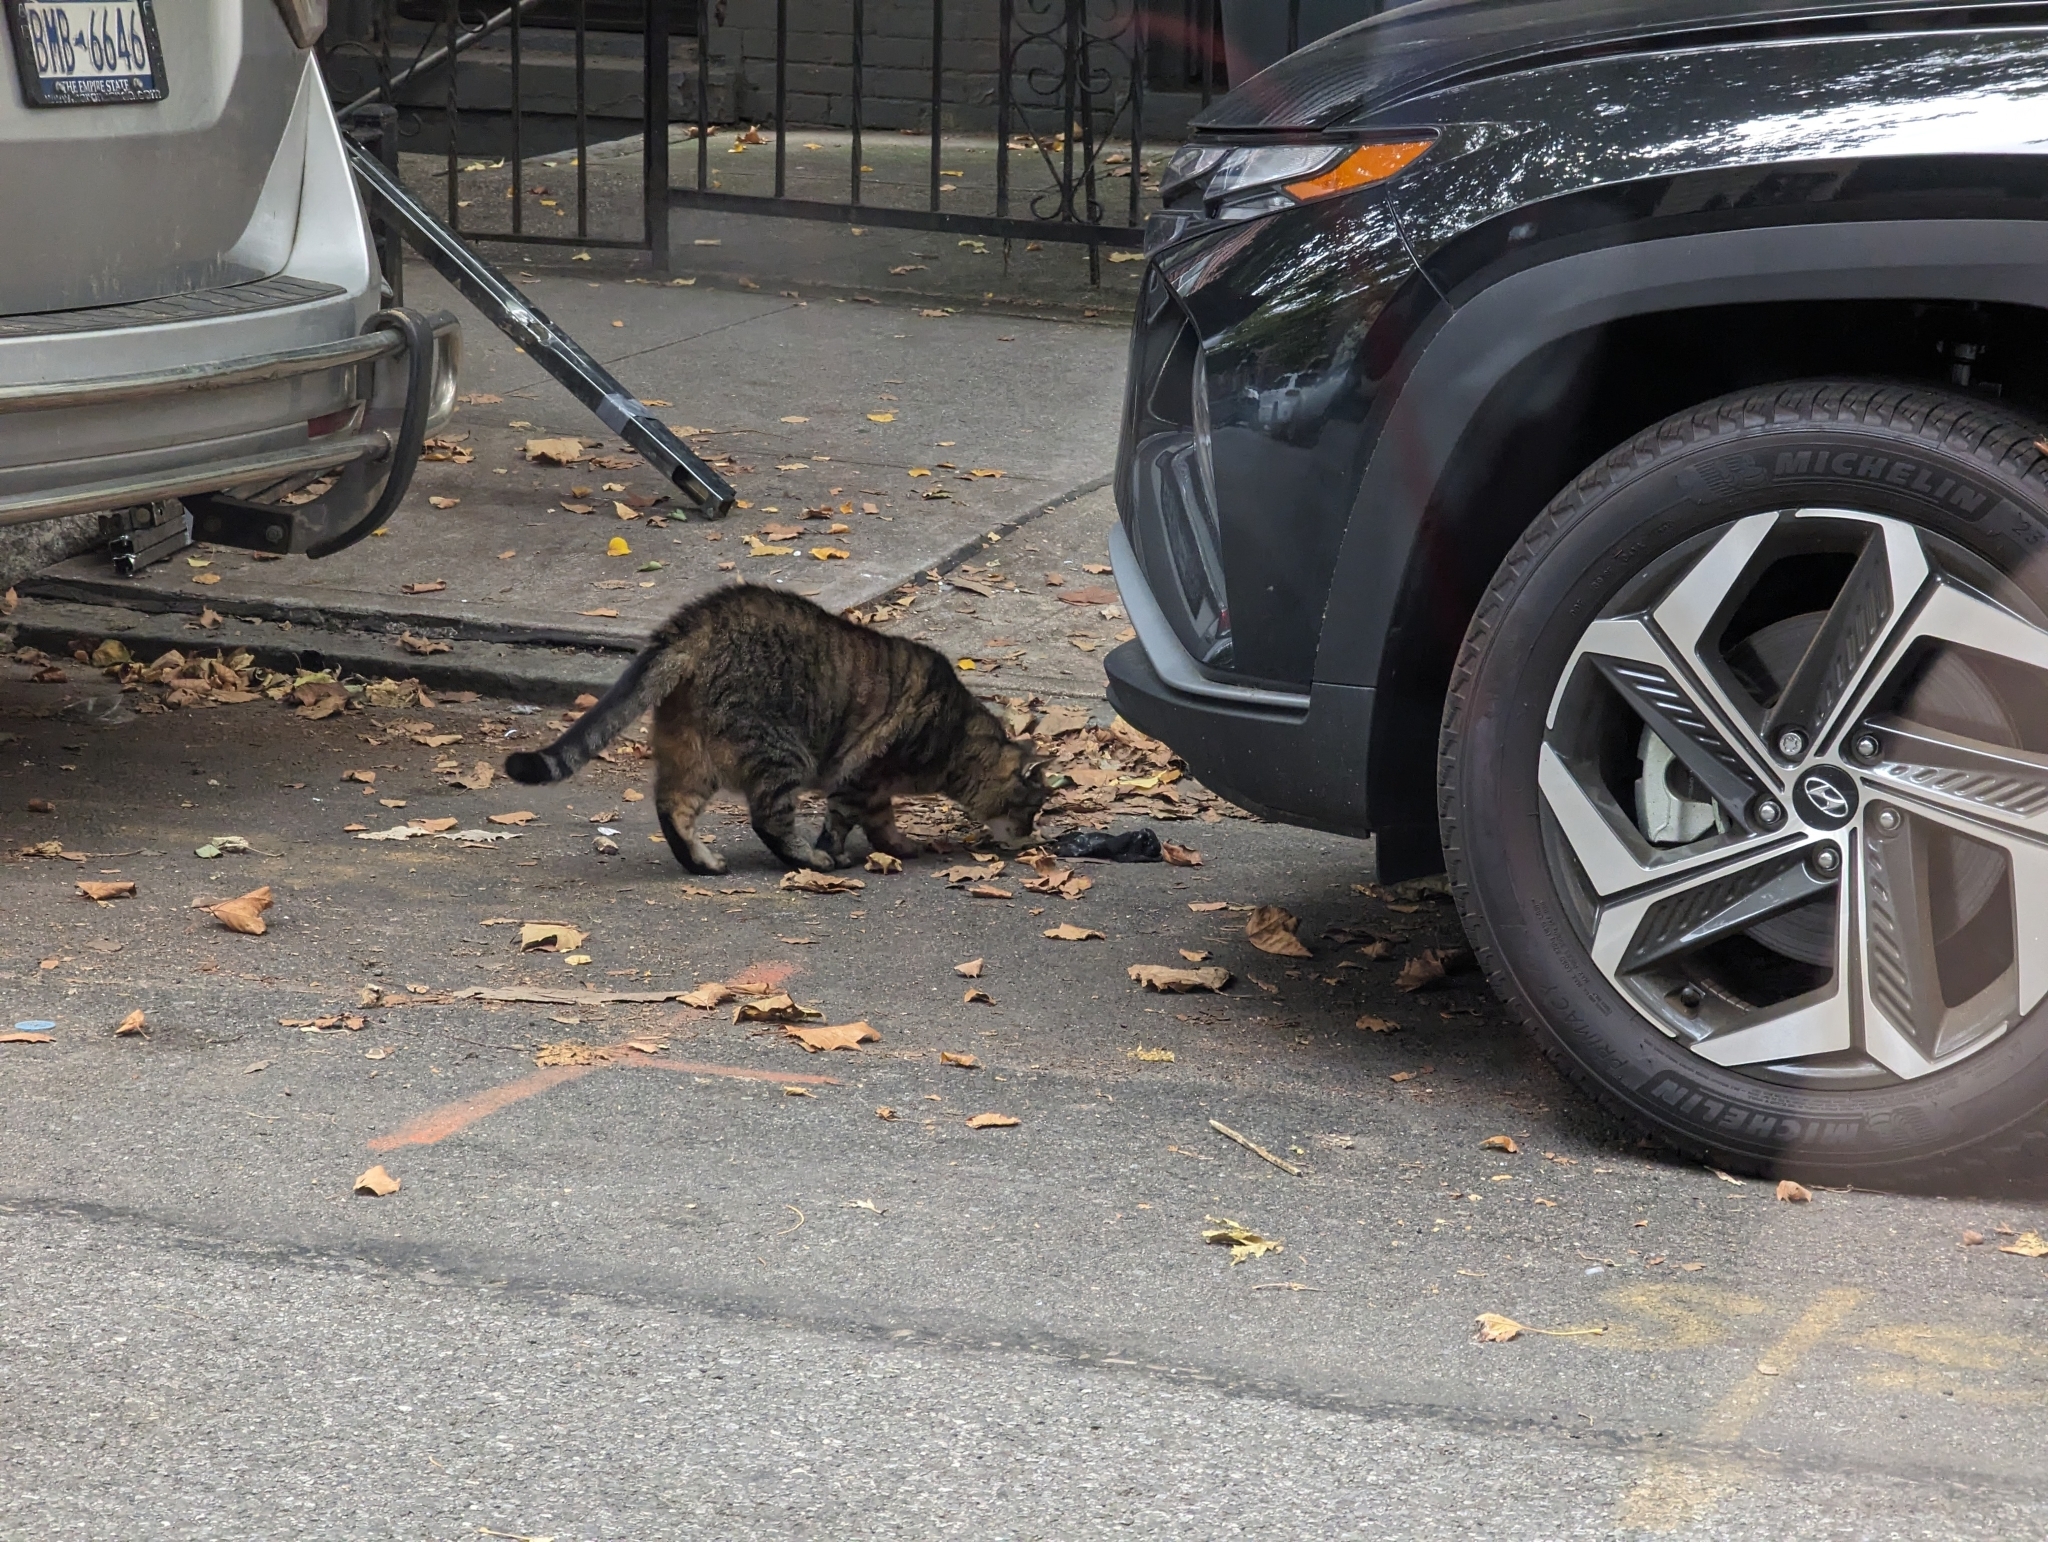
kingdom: Animalia
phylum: Chordata
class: Mammalia
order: Carnivora
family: Felidae
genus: Felis
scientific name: Felis catus
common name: Domestic cat
